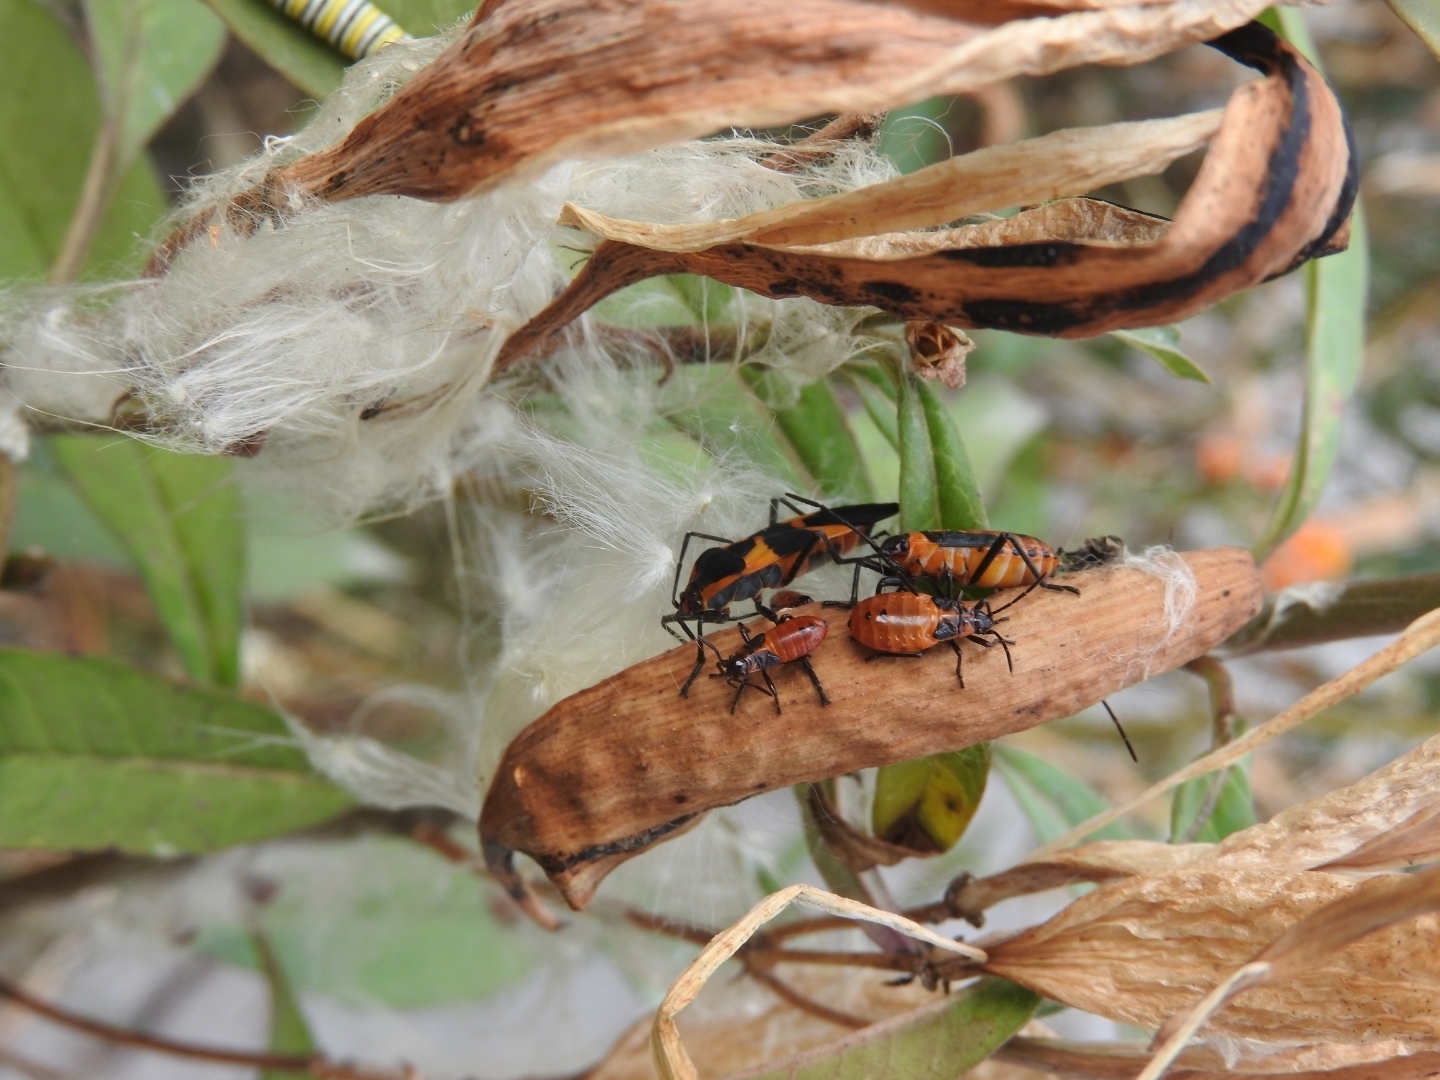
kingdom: Animalia
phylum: Arthropoda
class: Insecta
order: Hemiptera
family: Lygaeidae
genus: Oncopeltus
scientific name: Oncopeltus cingulifer
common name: Lygaeid bug
